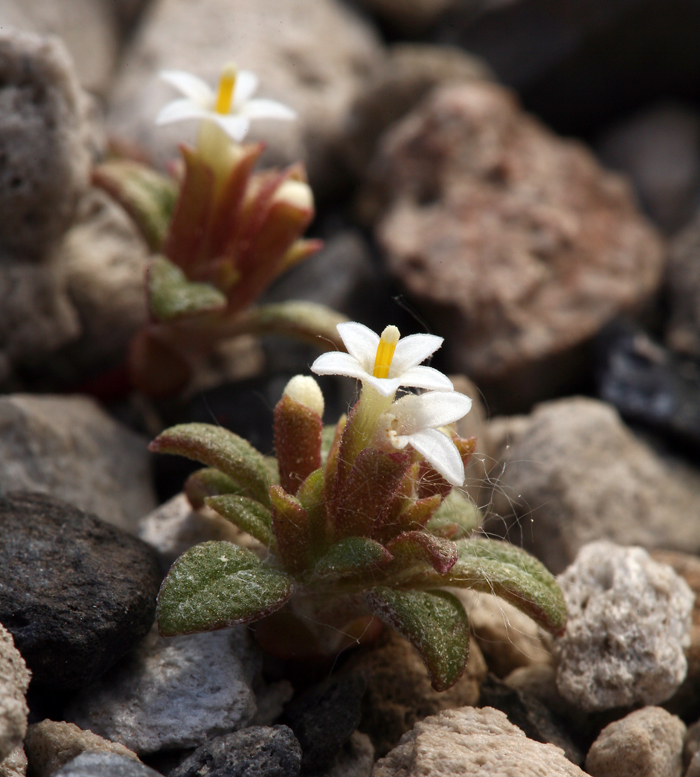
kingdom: Plantae
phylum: Tracheophyta
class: Magnoliopsida
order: Asterales
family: Asteraceae
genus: Dimeresia
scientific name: Dimeresia howellii
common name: Doublet
